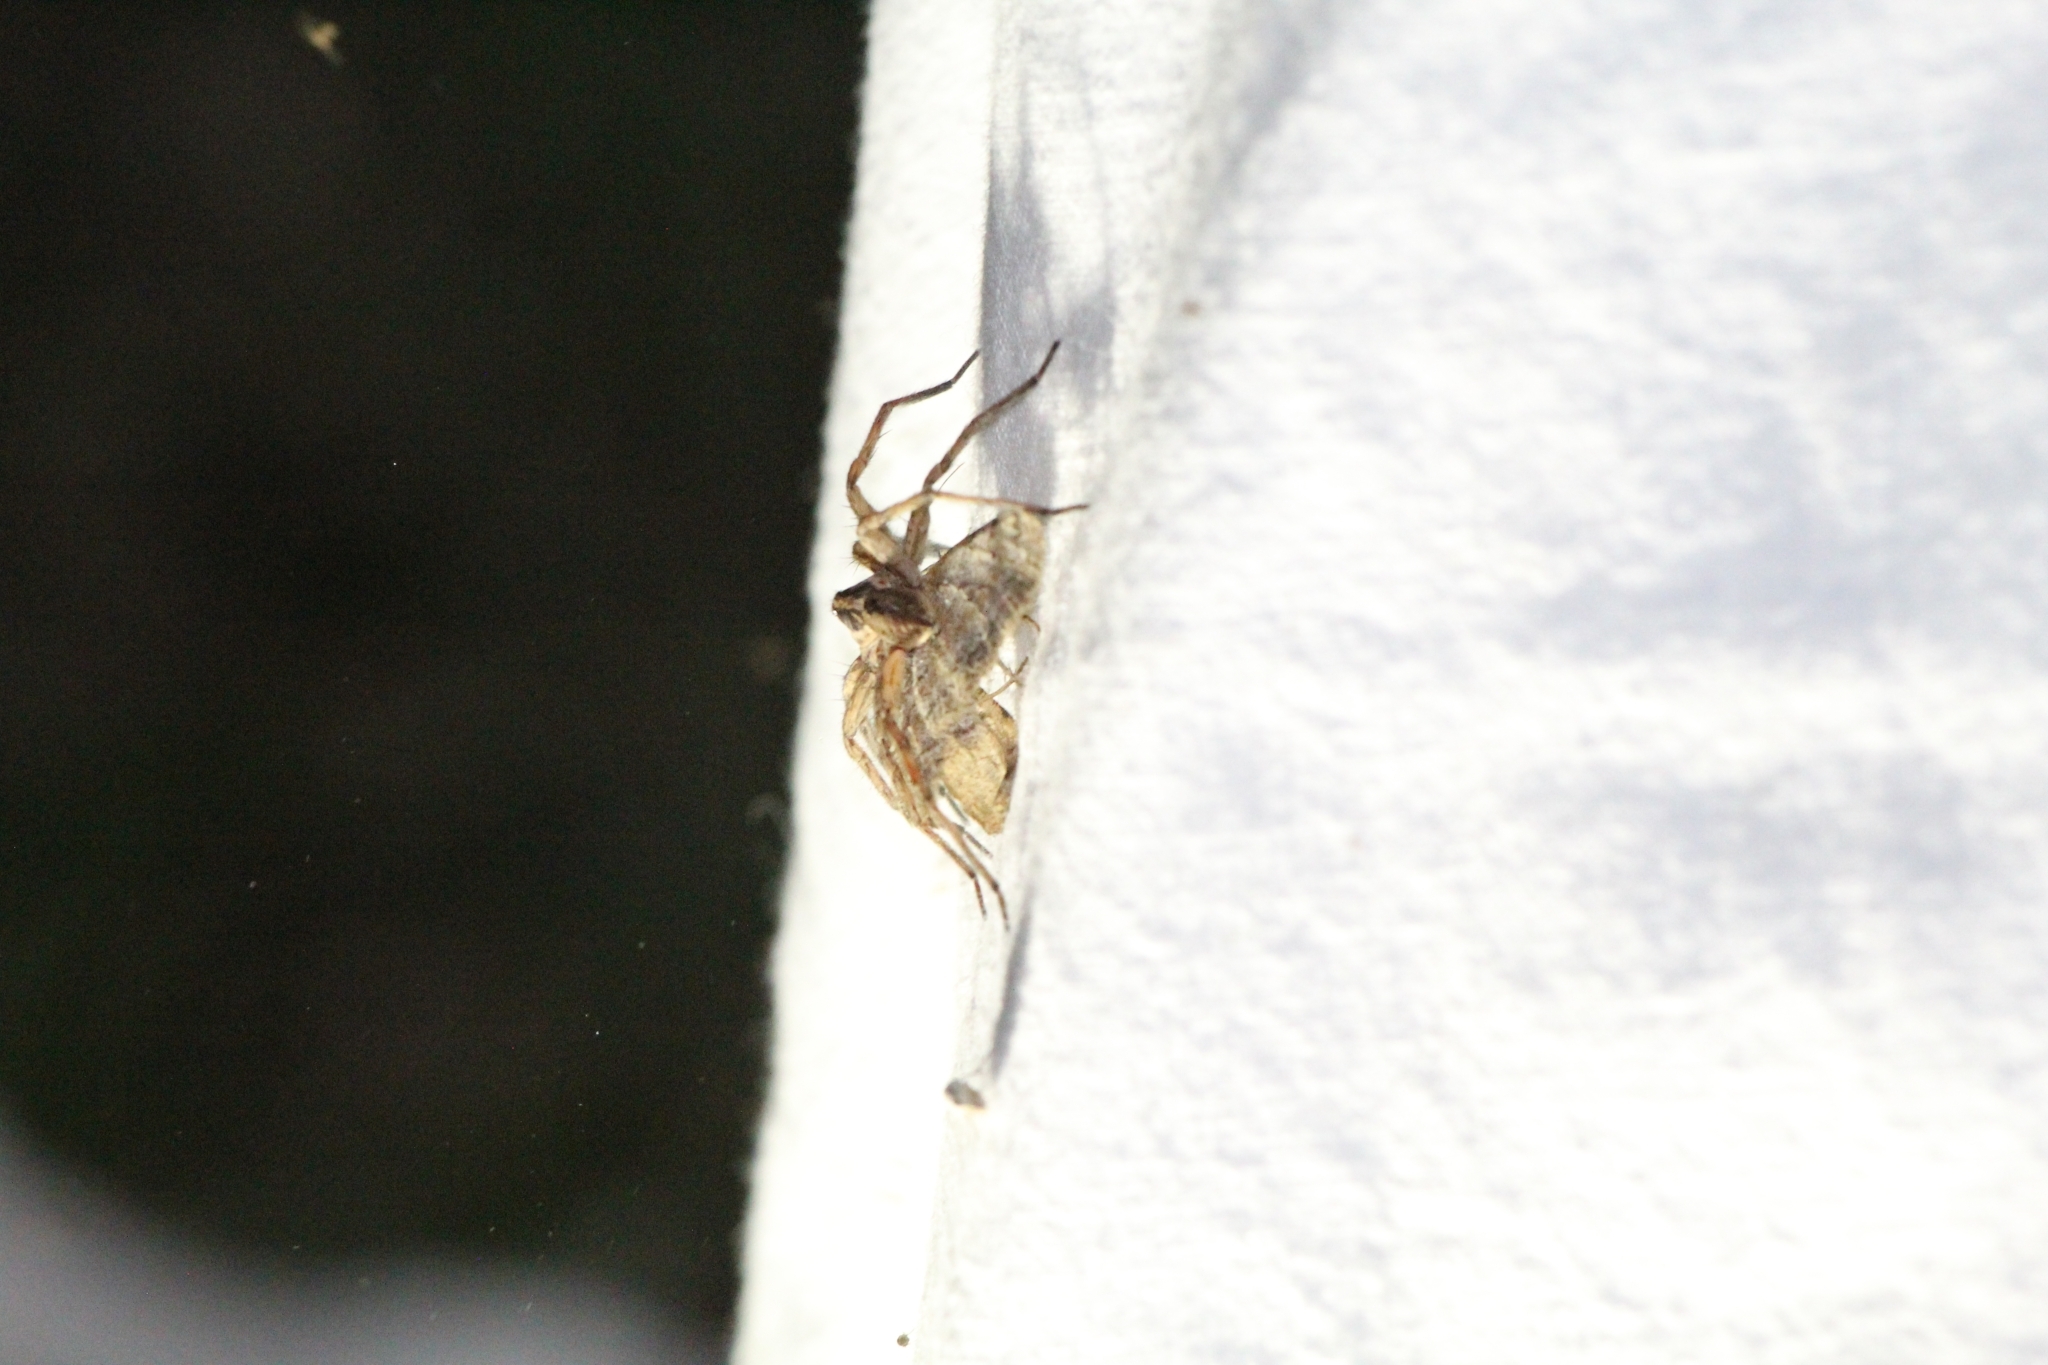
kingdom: Animalia
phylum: Arthropoda
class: Arachnida
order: Araneae
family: Lycosidae
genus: Hogna
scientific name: Hogna radiata
